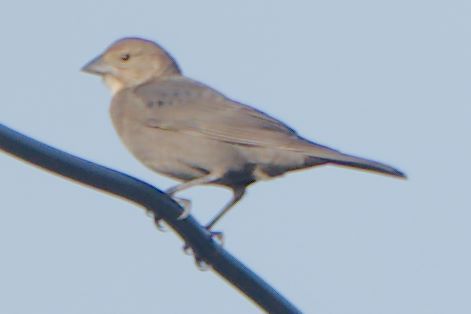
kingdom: Animalia
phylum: Chordata
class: Aves
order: Passeriformes
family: Icteridae
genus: Molothrus
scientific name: Molothrus ater
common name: Brown-headed cowbird
